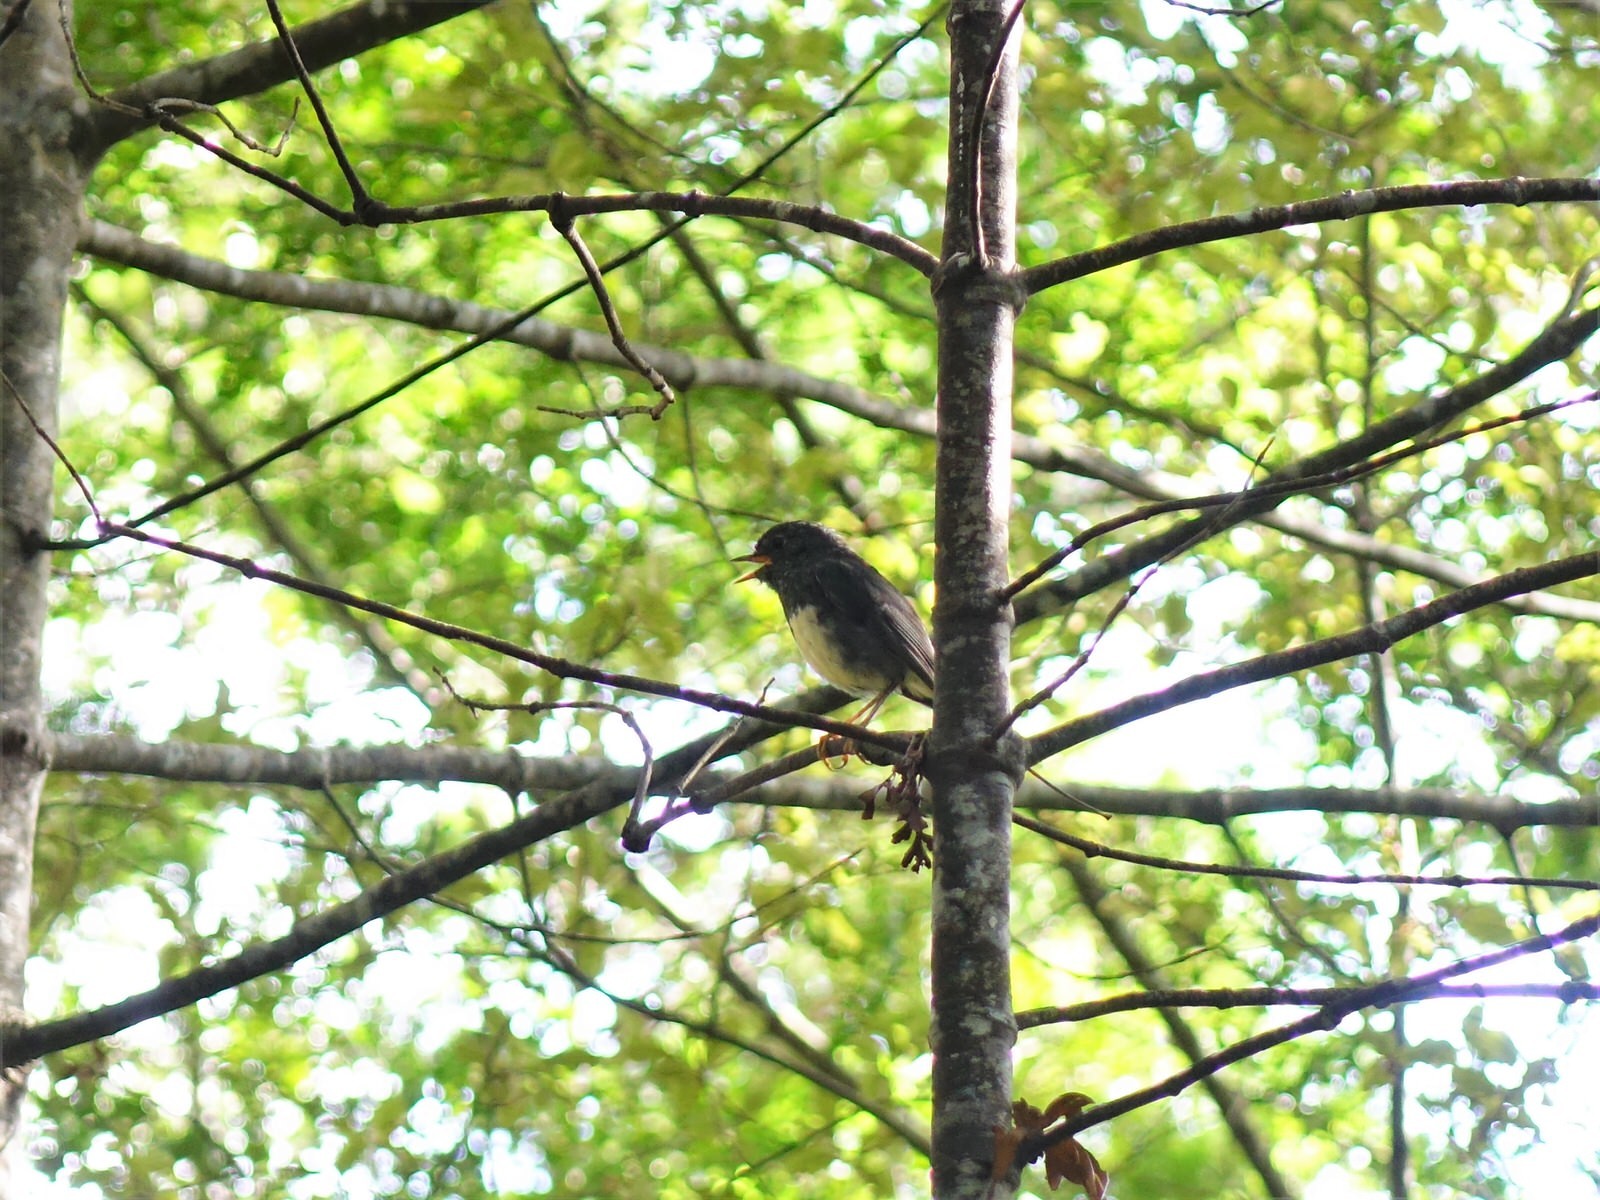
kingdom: Animalia
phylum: Chordata
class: Aves
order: Passeriformes
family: Petroicidae
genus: Petroica
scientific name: Petroica australis
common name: New zealand robin
